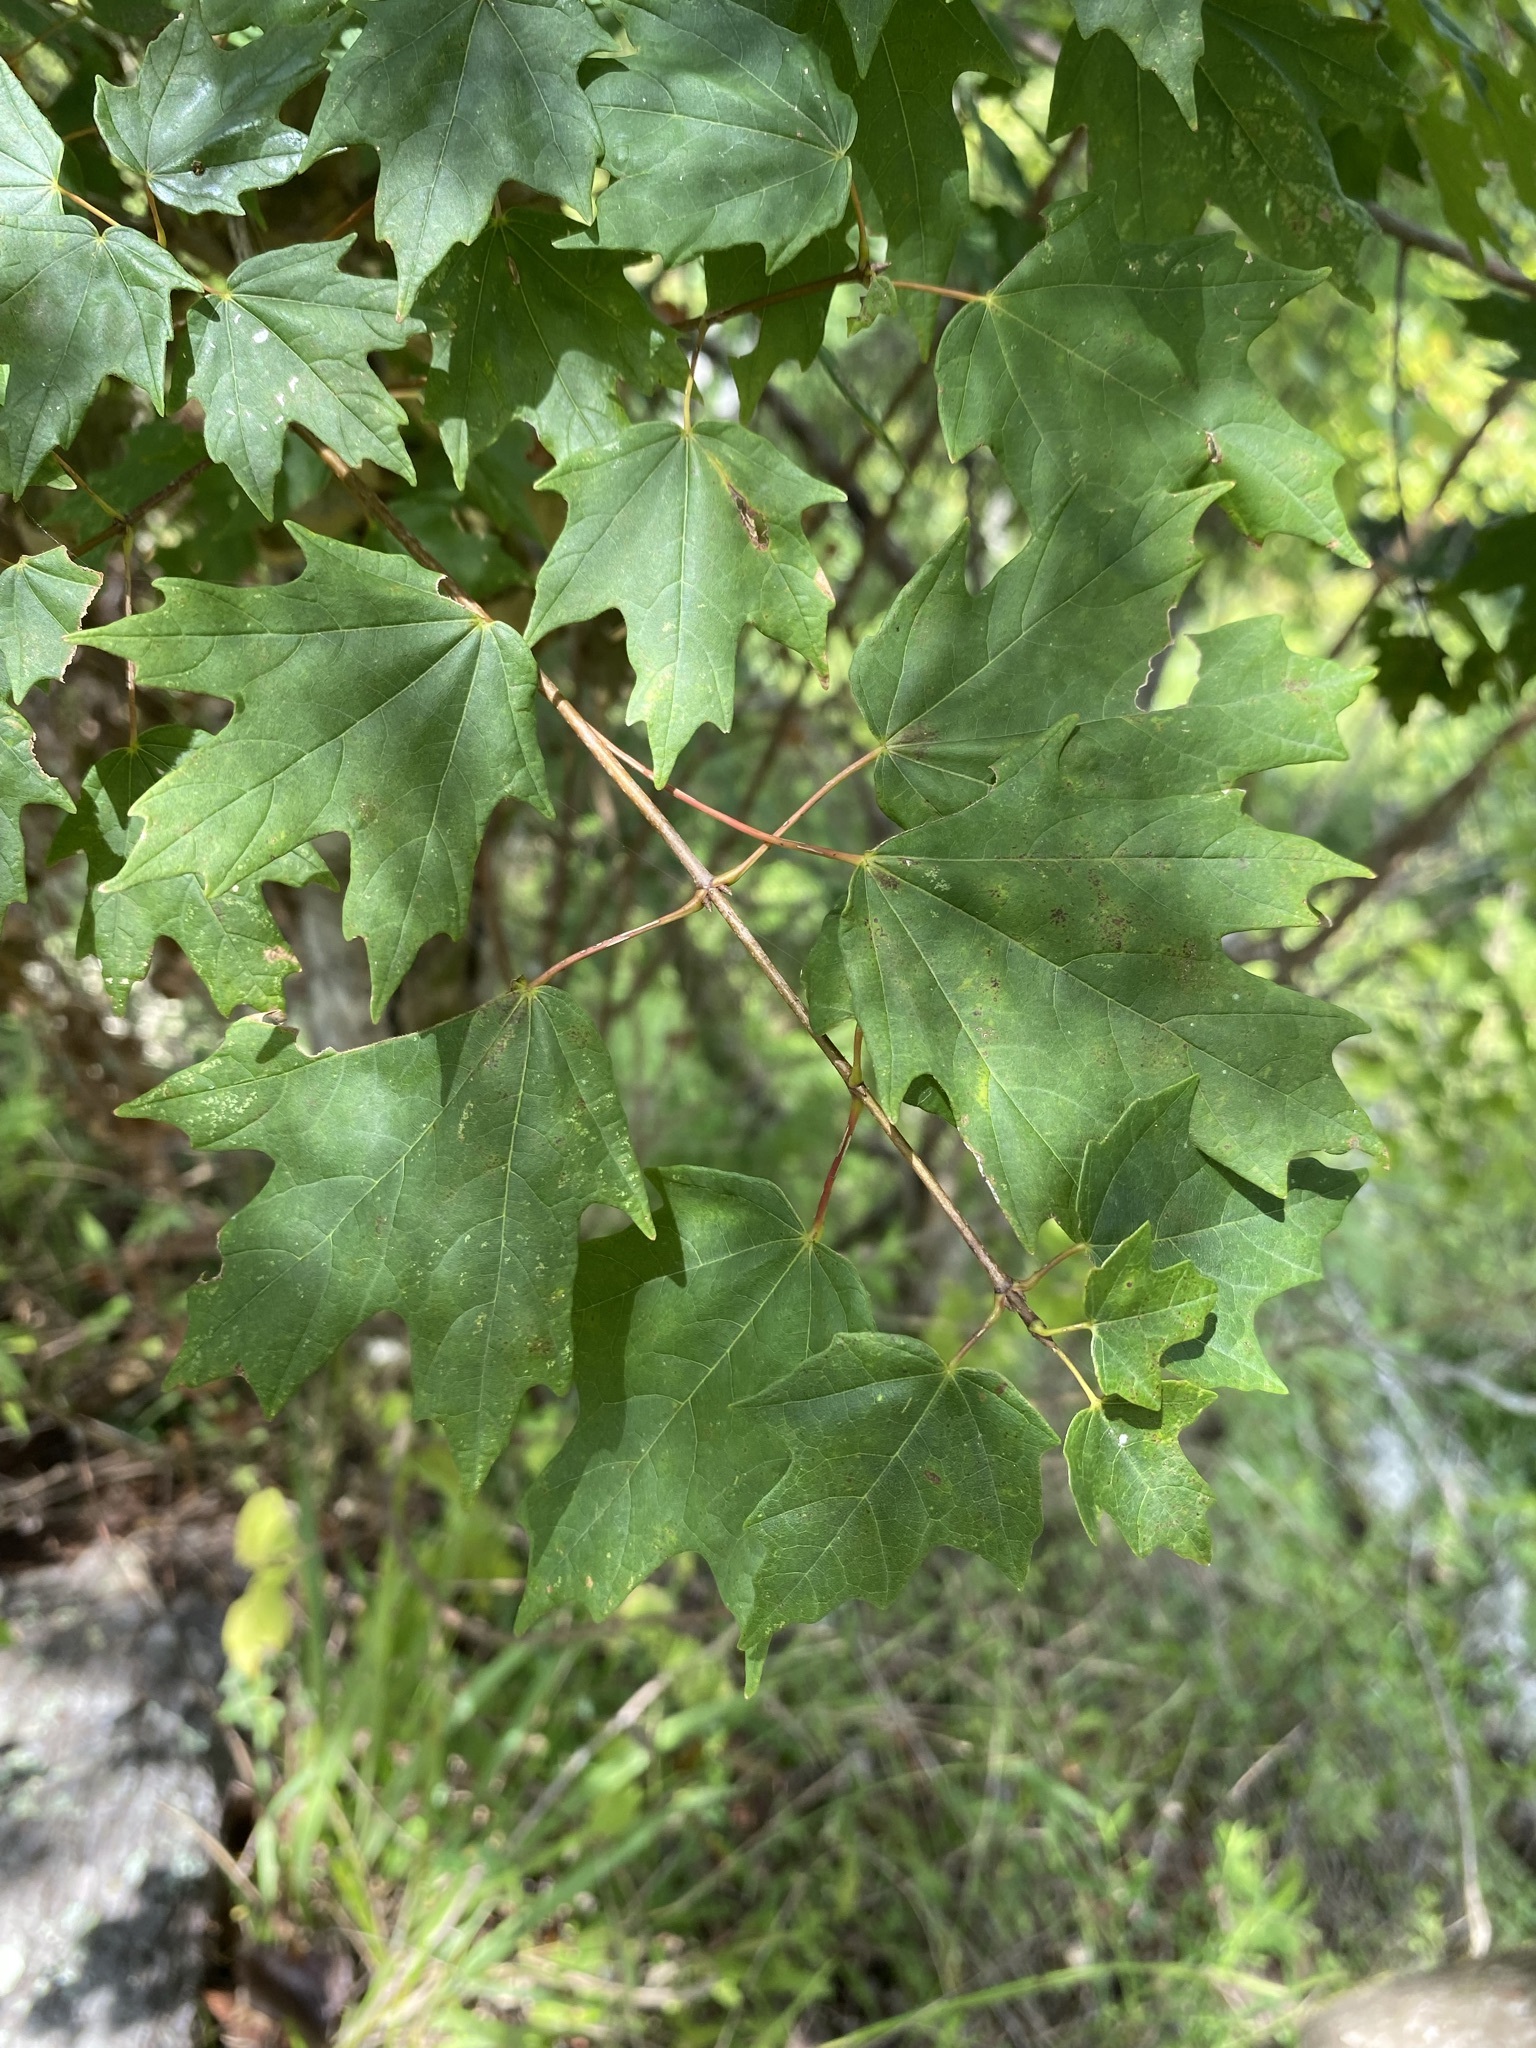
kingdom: Plantae
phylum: Tracheophyta
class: Magnoliopsida
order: Sapindales
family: Sapindaceae
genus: Acer
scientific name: Acer floridanum
